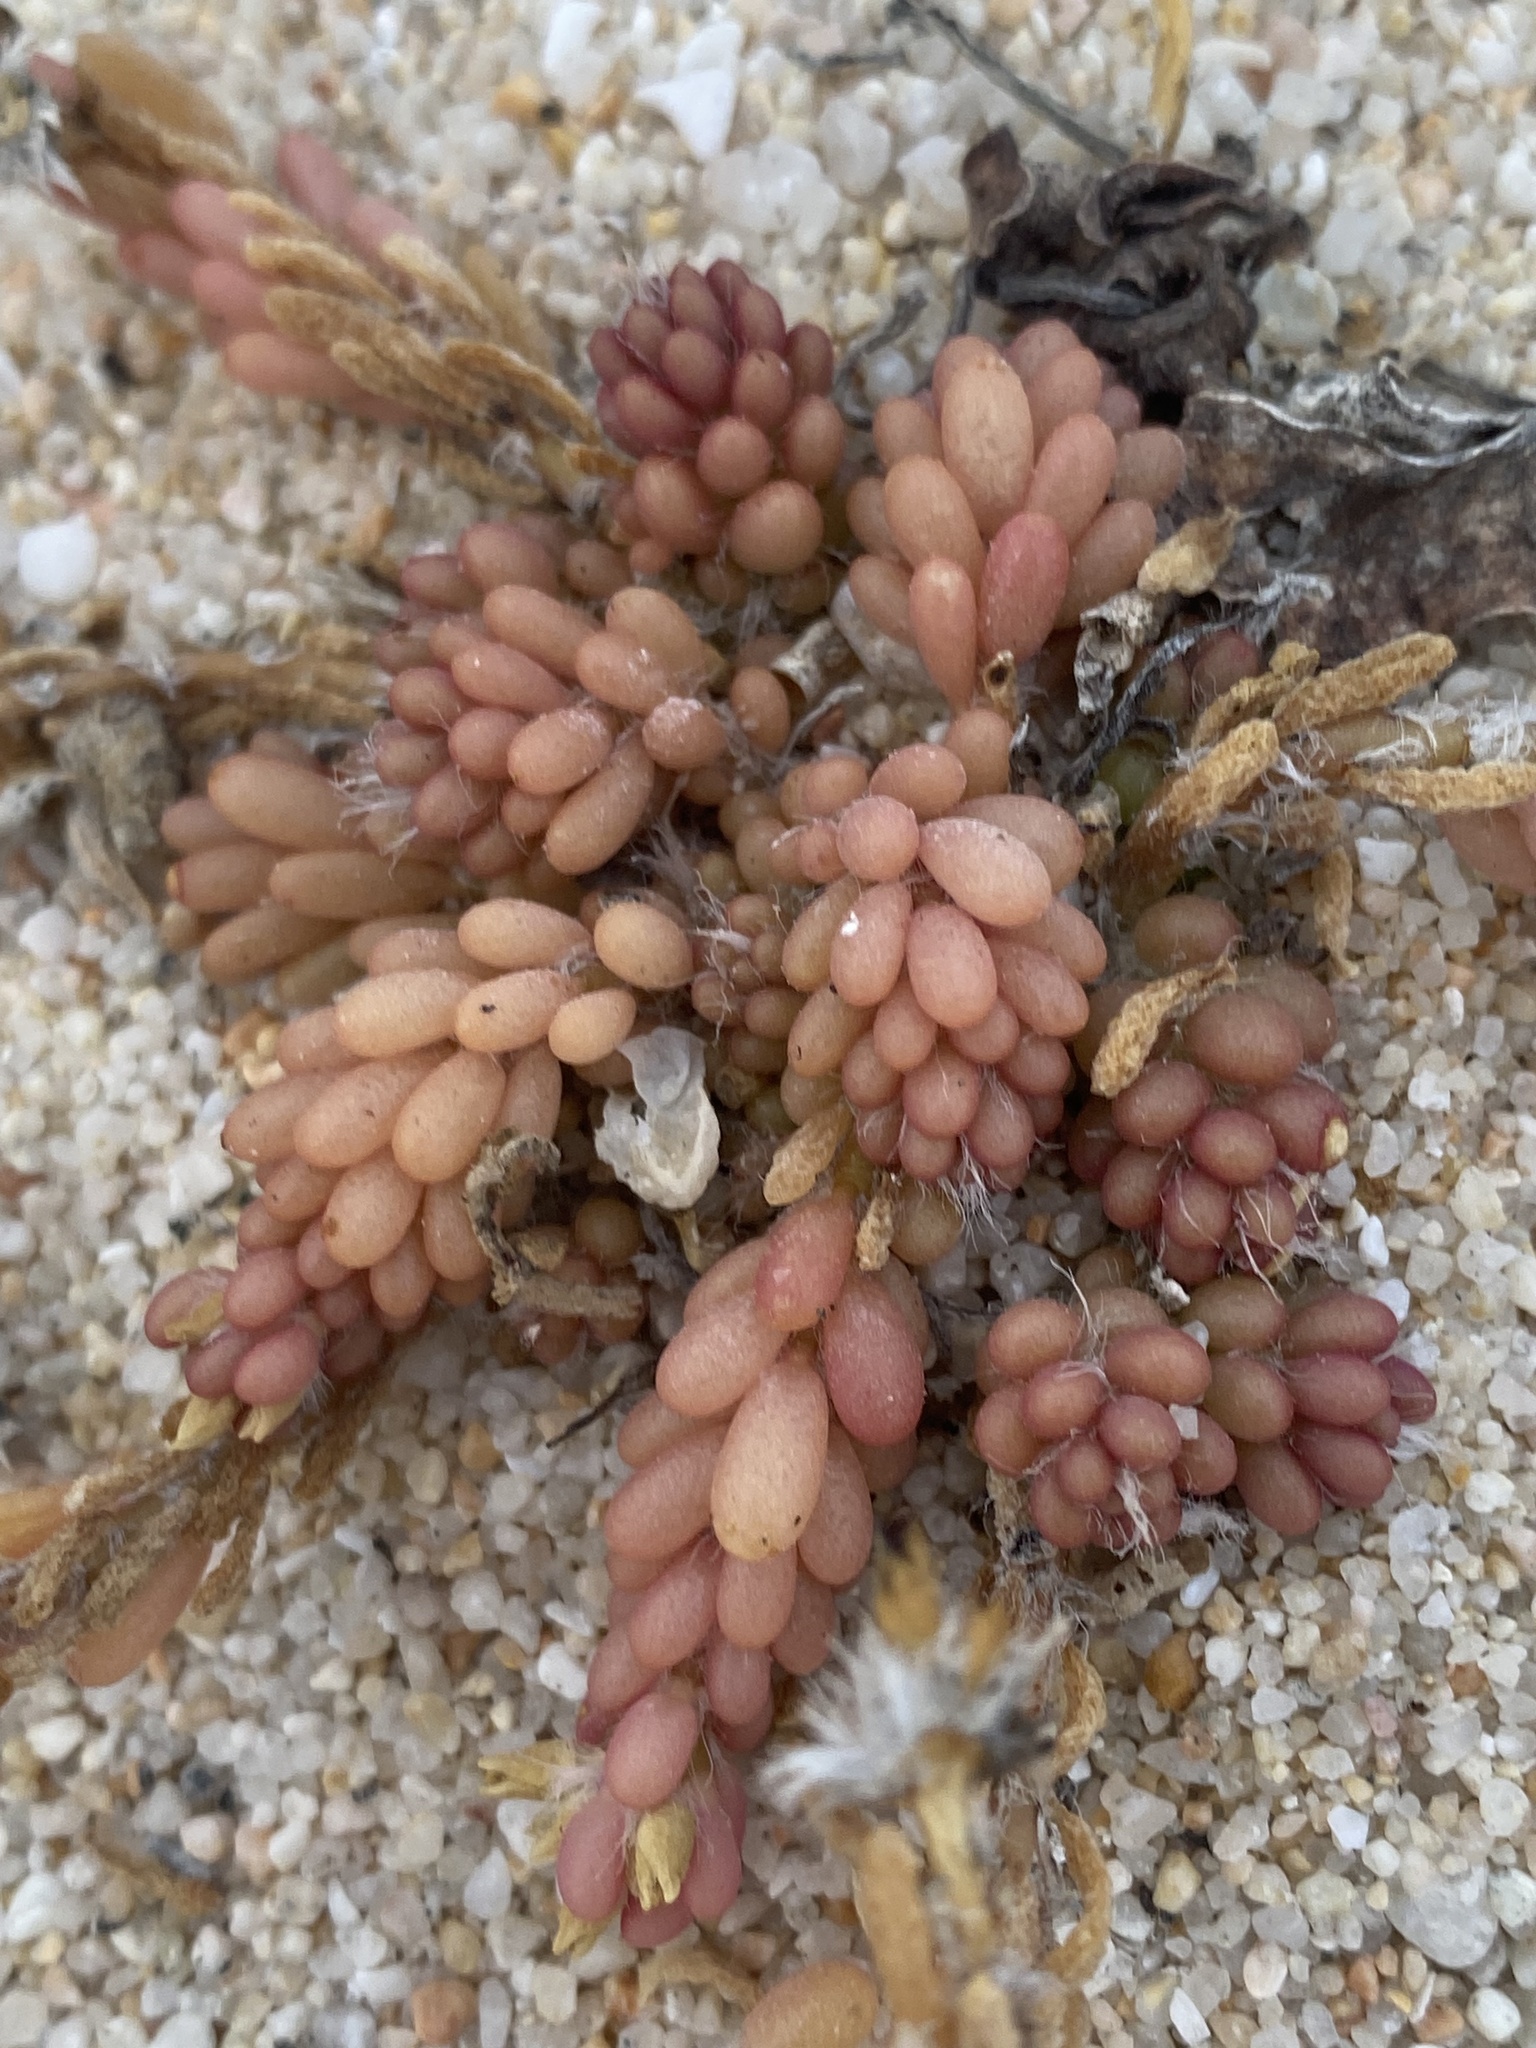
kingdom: Plantae
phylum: Tracheophyta
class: Magnoliopsida
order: Caryophyllales
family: Portulacaceae
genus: Portulaca
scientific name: Portulaca californica
